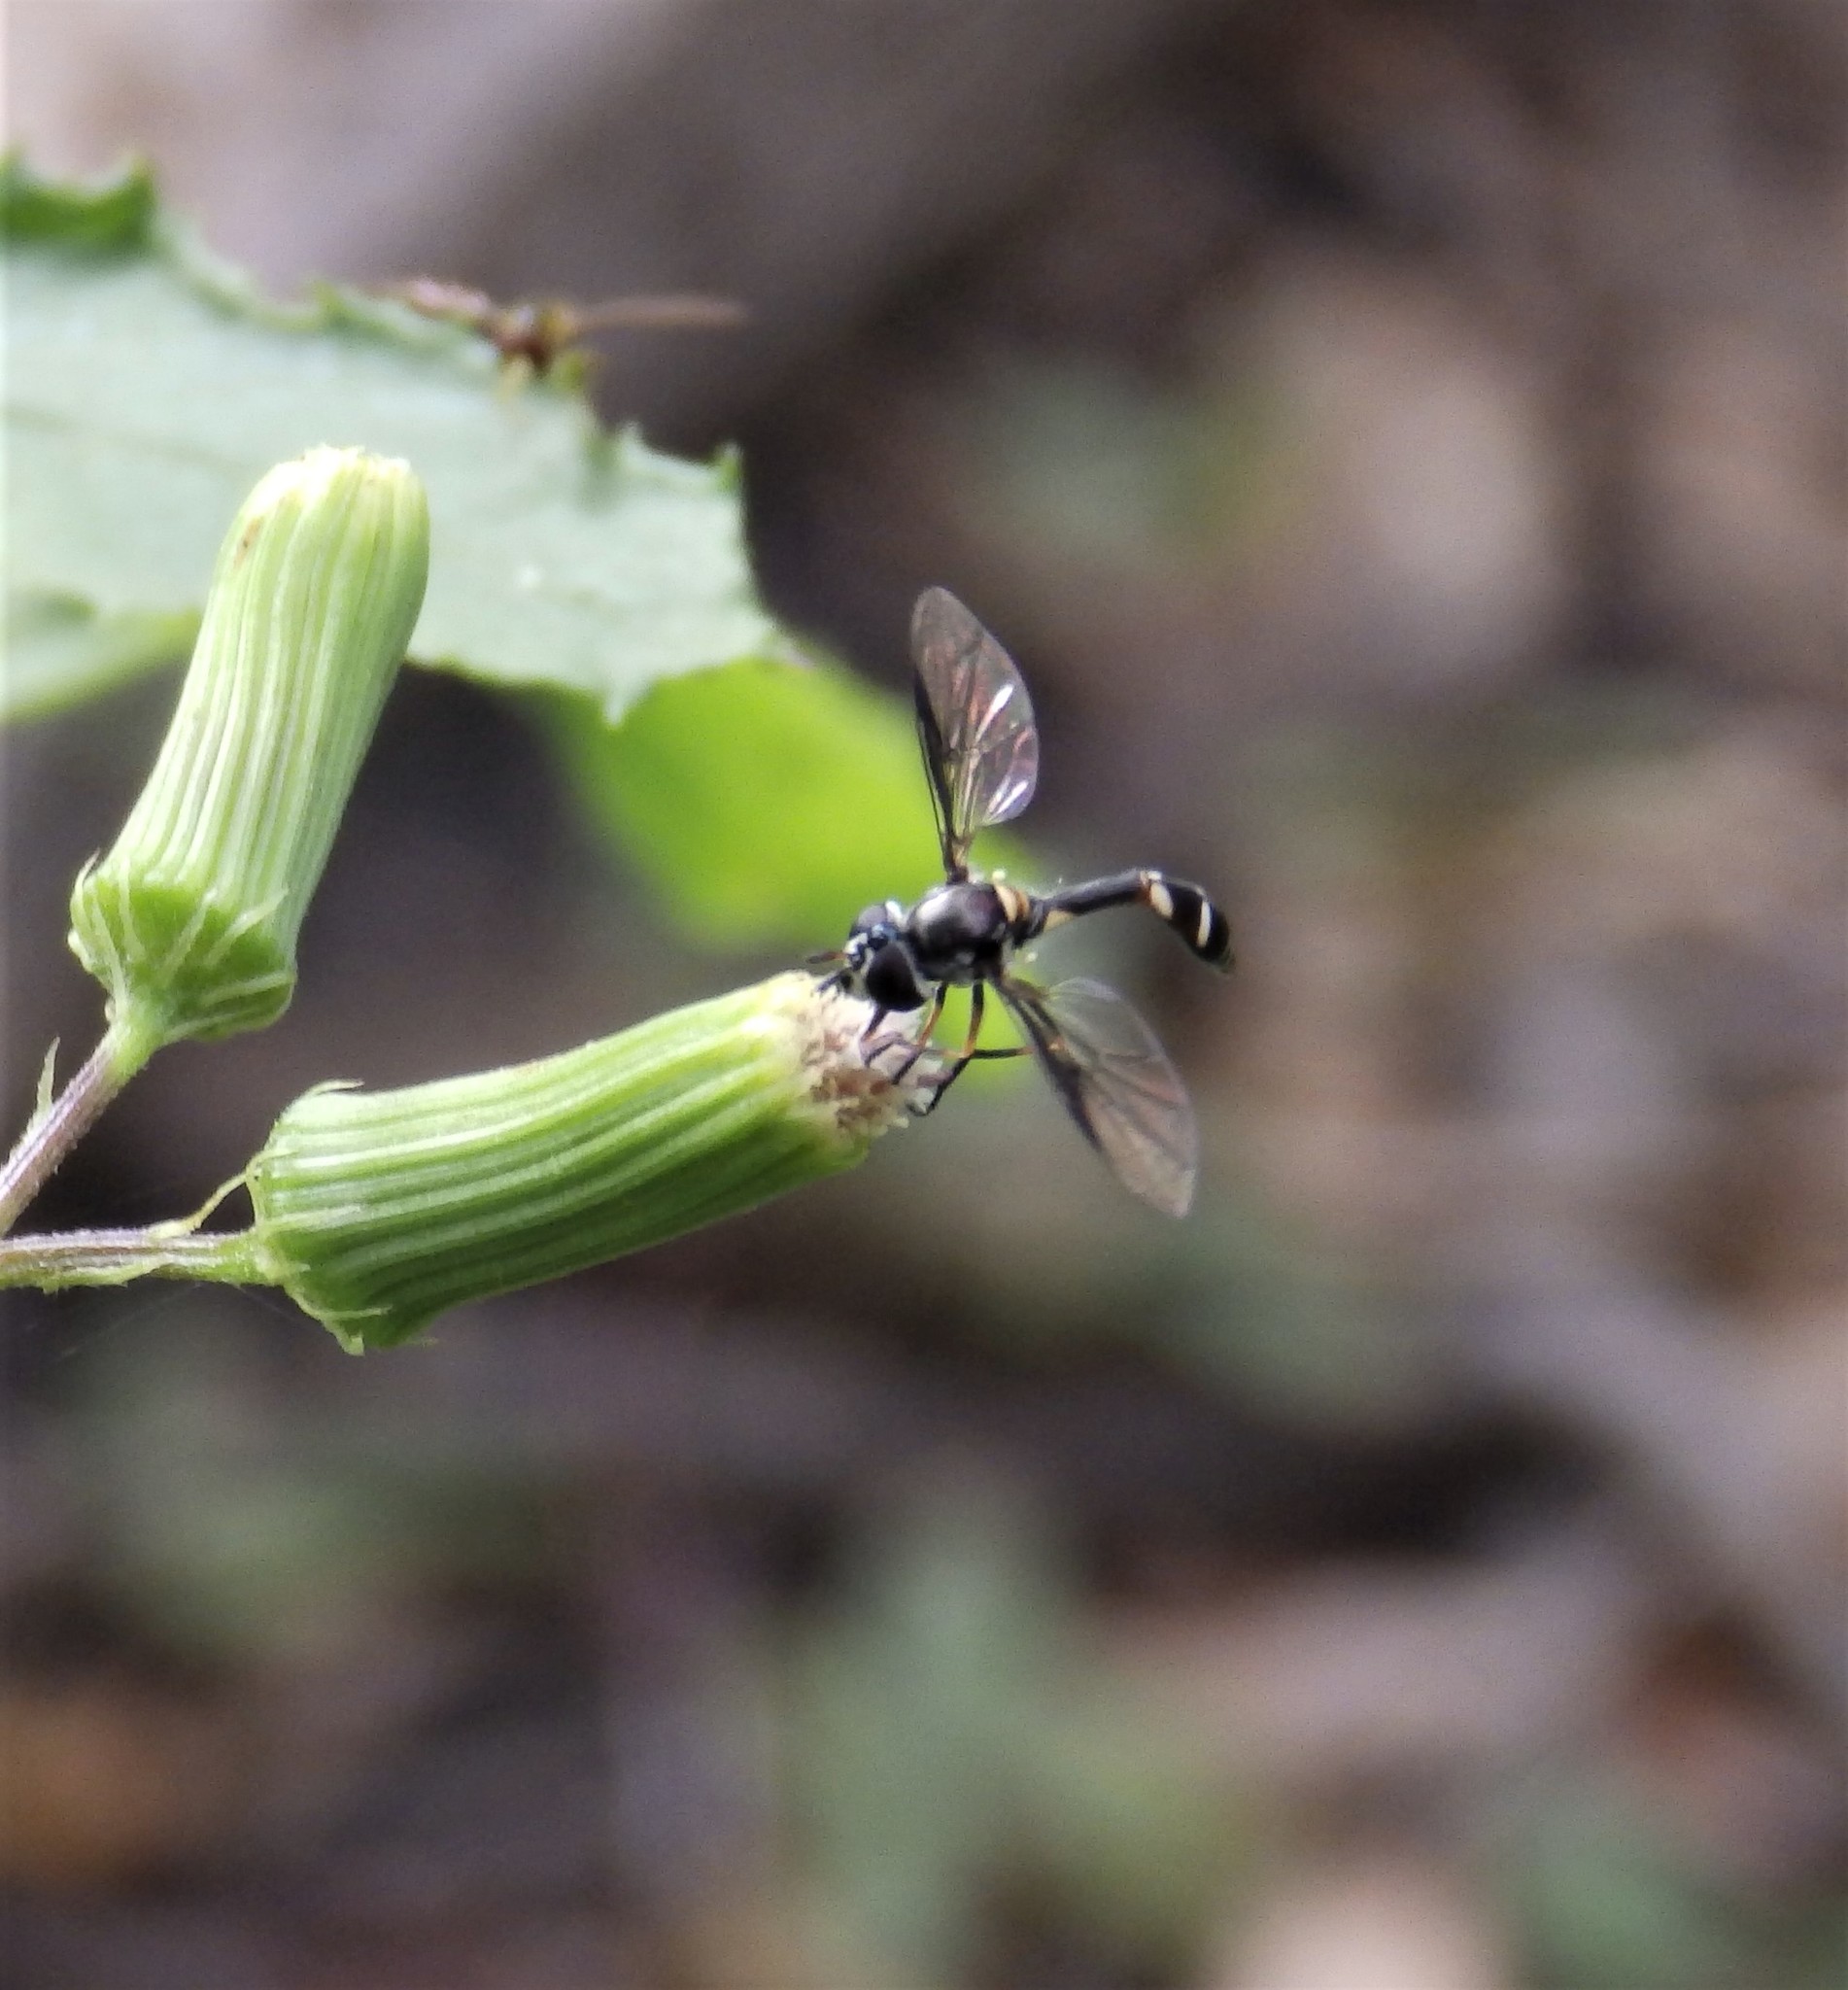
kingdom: Animalia
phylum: Arthropoda
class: Insecta
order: Diptera
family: Syrphidae
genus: Dioprosopa
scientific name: Dioprosopa clavatus
